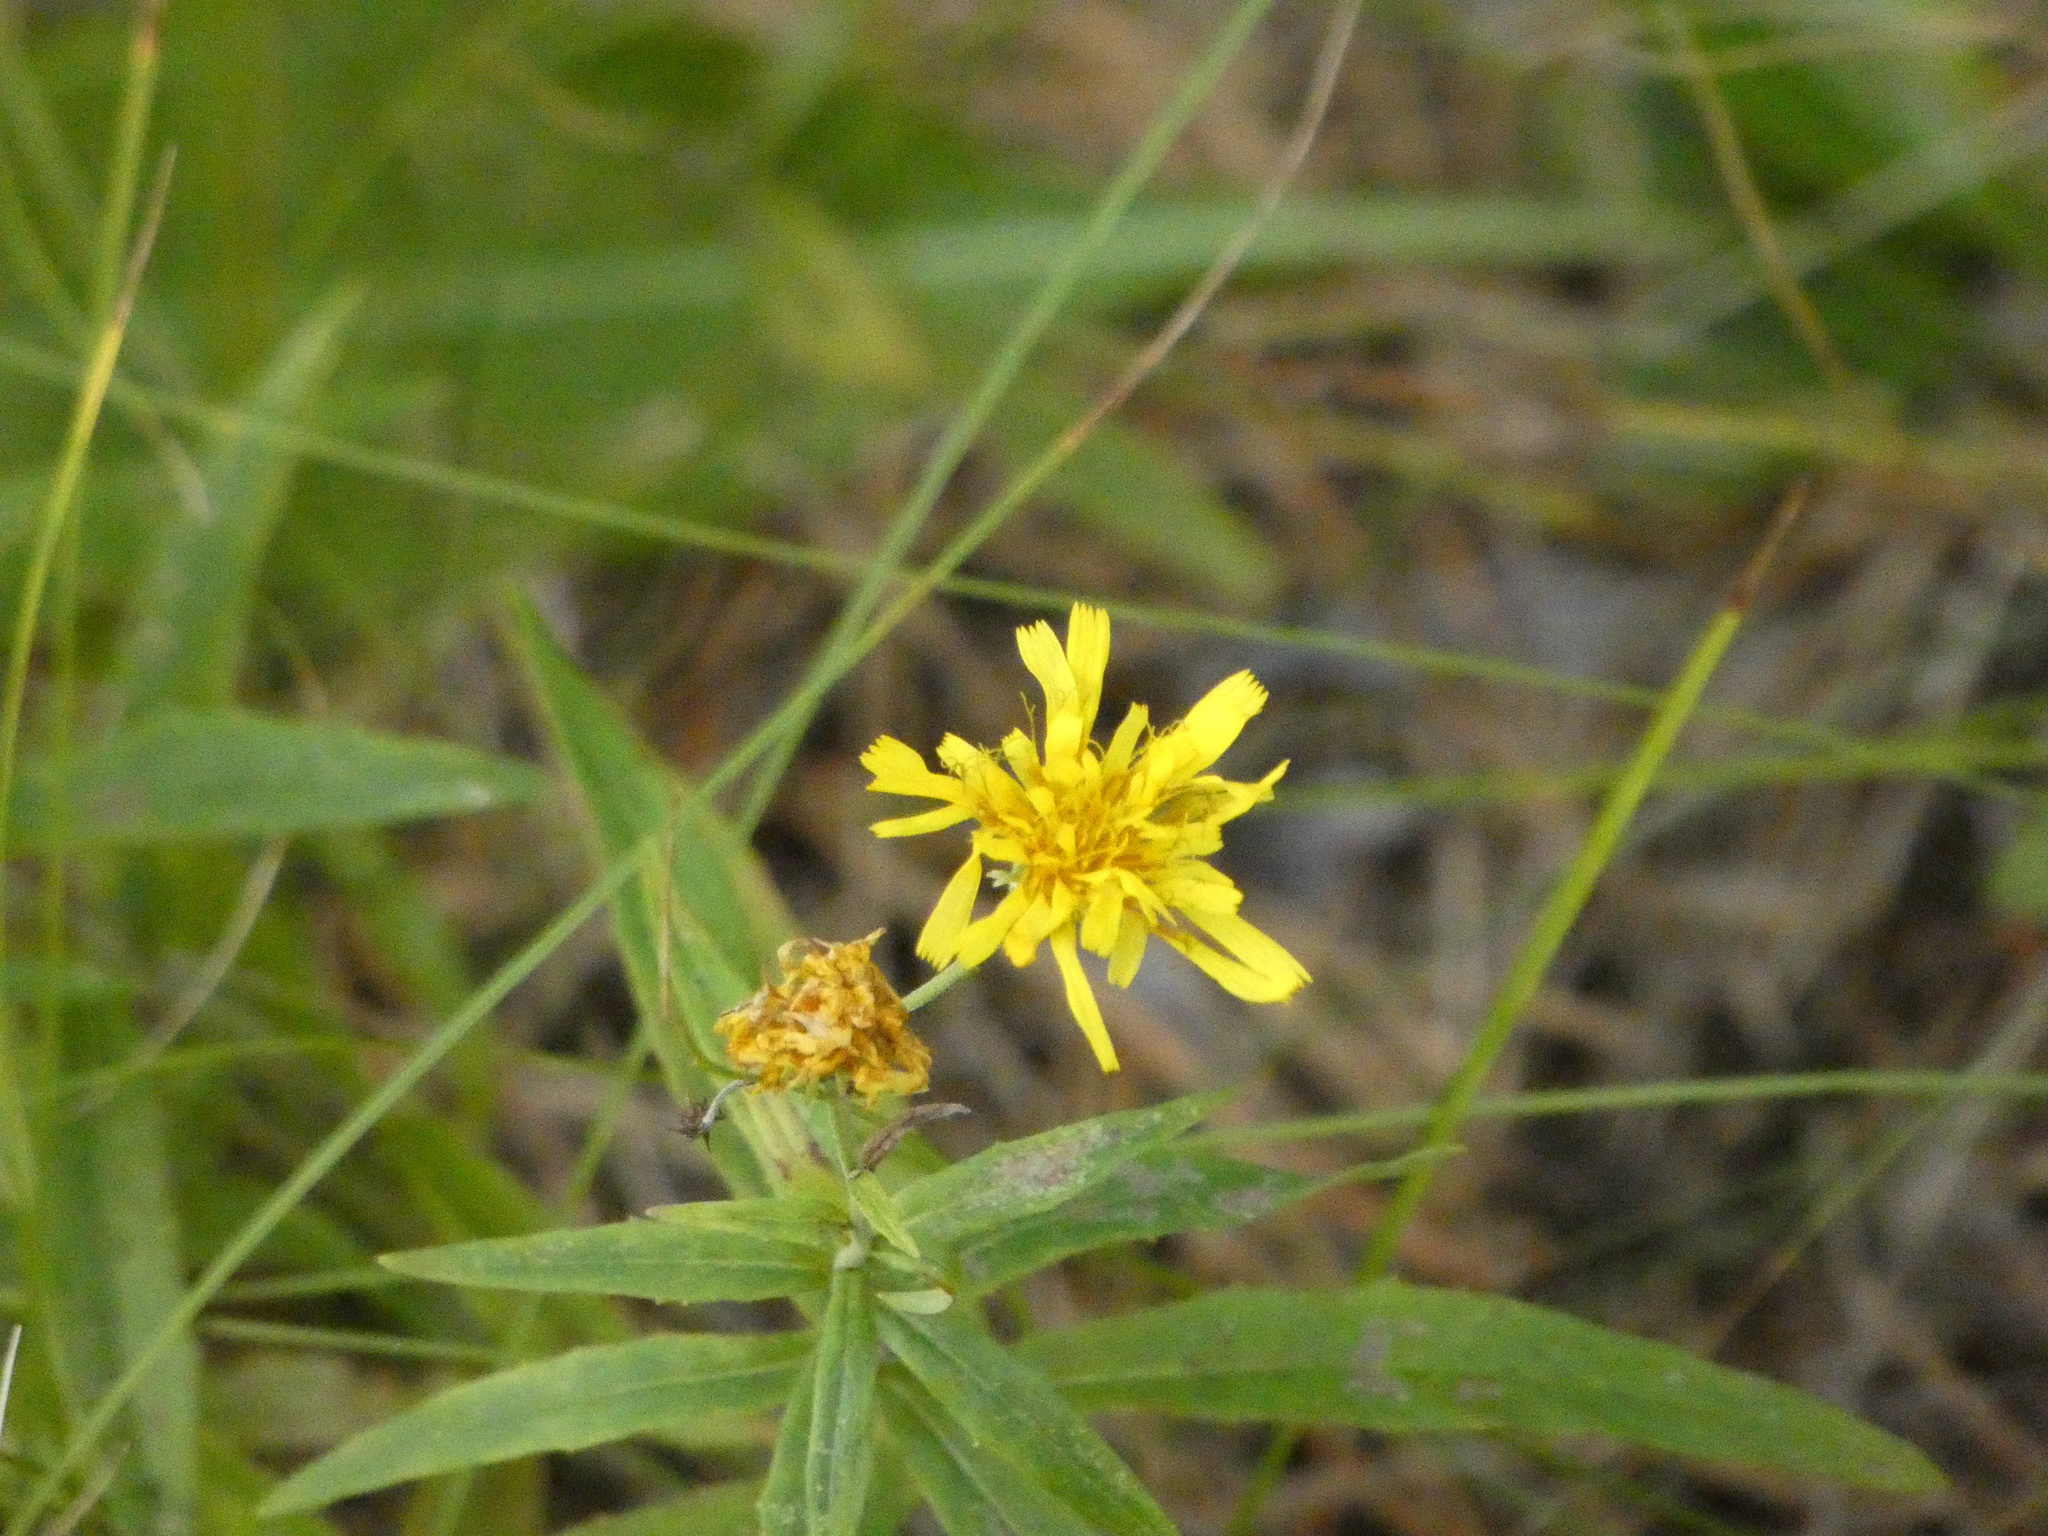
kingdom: Plantae
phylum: Tracheophyta
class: Magnoliopsida
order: Asterales
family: Asteraceae
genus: Hieracium
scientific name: Hieracium umbellatum
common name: Northern hawkweed
